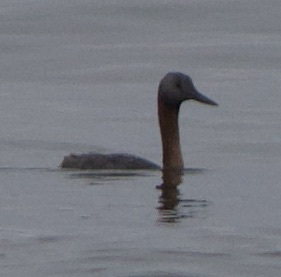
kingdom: Animalia
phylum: Chordata
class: Aves
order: Podicipediformes
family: Podicipedidae
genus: Podiceps
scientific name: Podiceps major
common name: Great grebe
